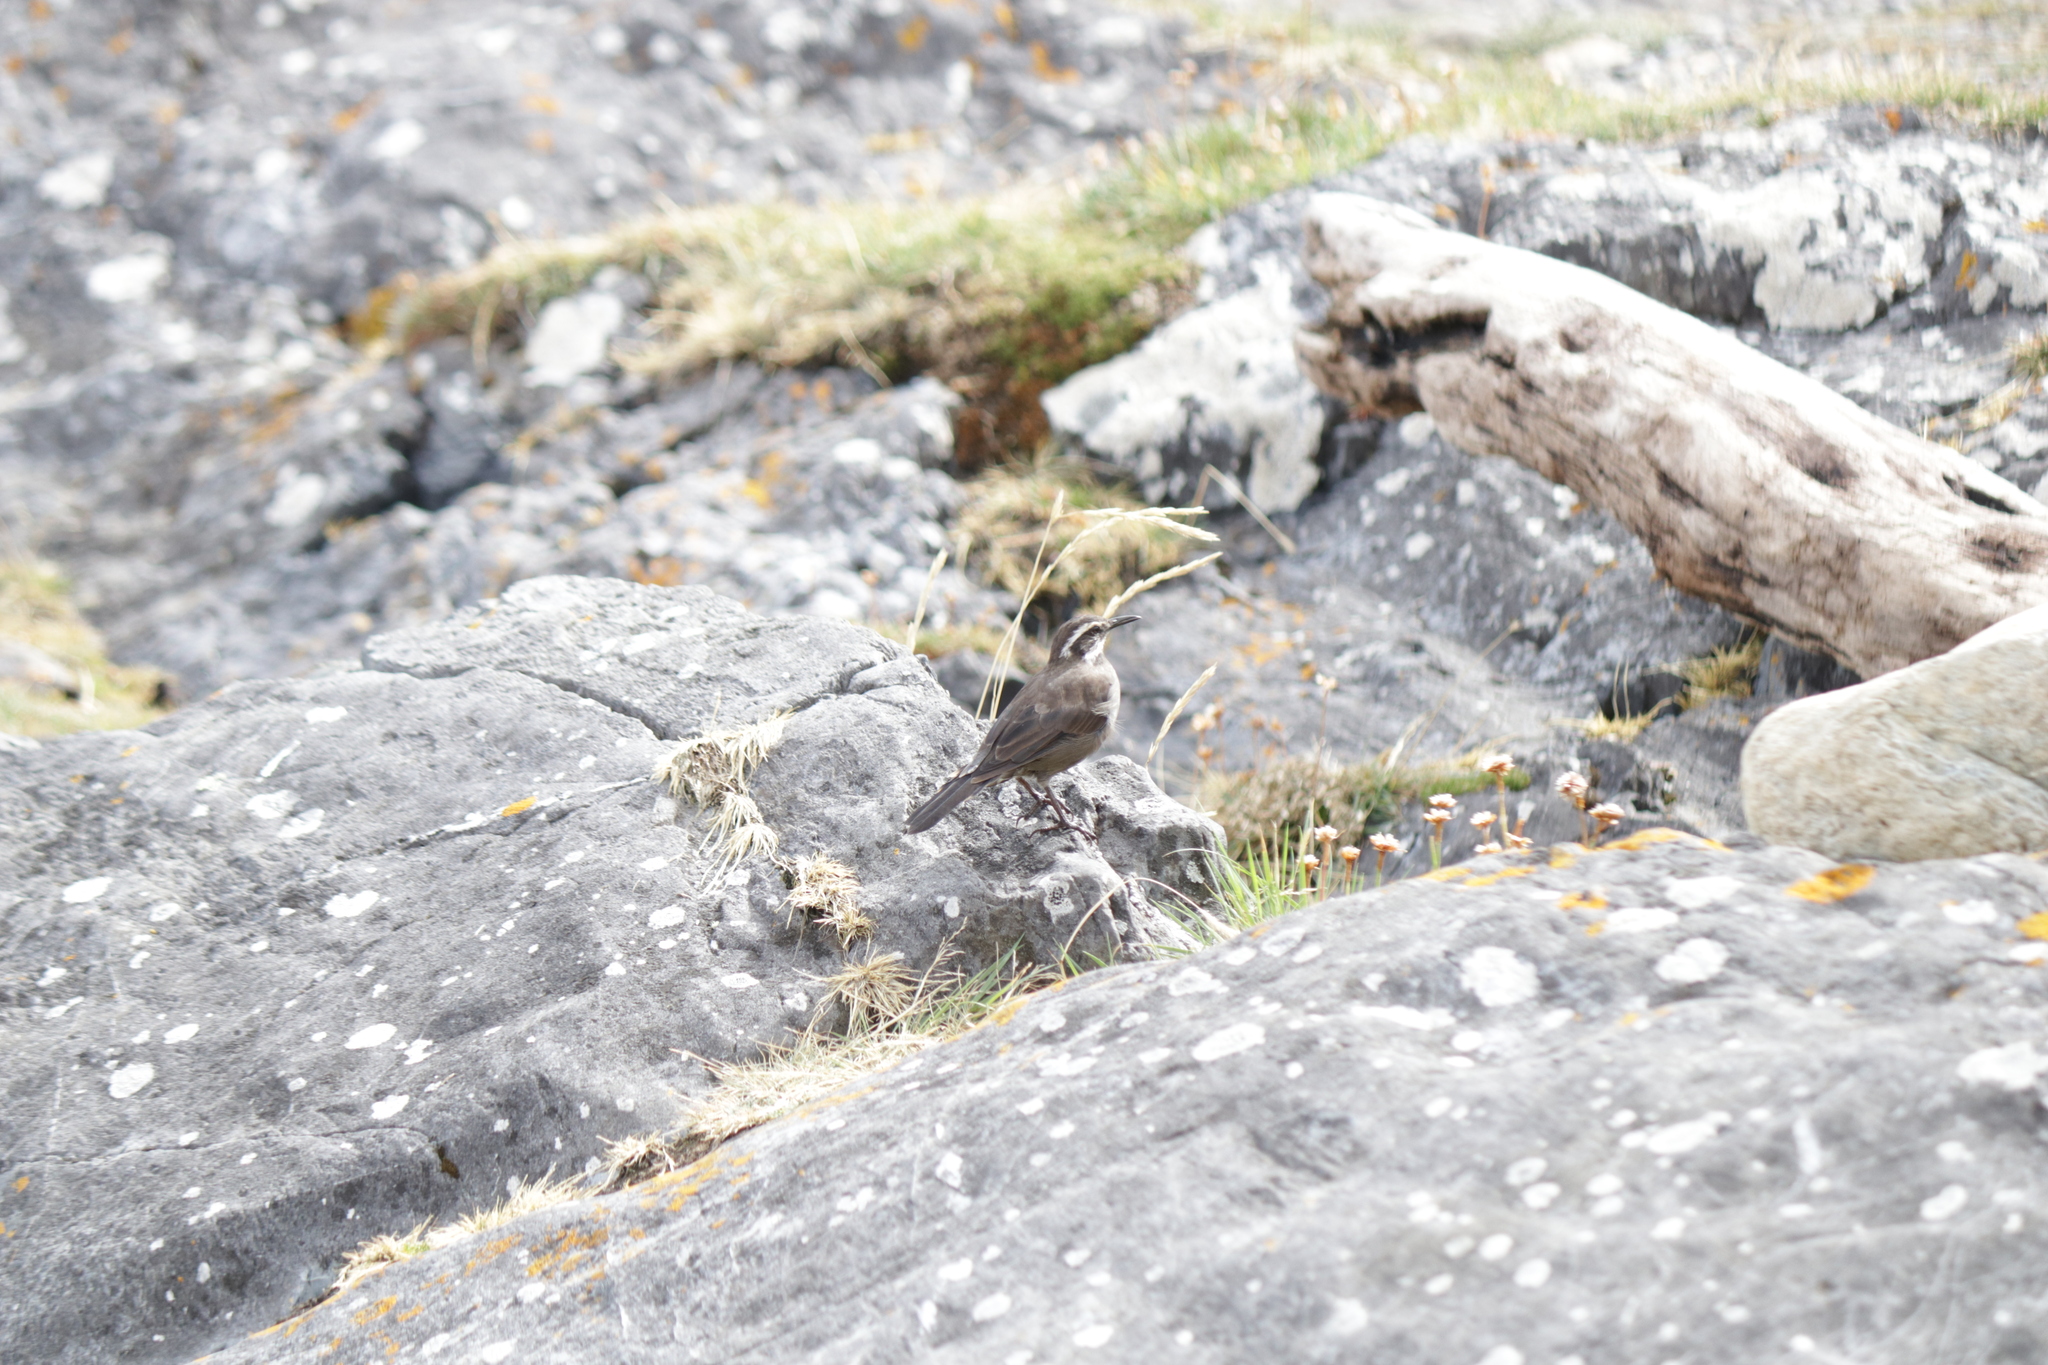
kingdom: Animalia
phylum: Chordata
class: Aves
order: Passeriformes
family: Furnariidae
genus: Cinclodes
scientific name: Cinclodes patagonicus
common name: Dark-bellied cinclodes
